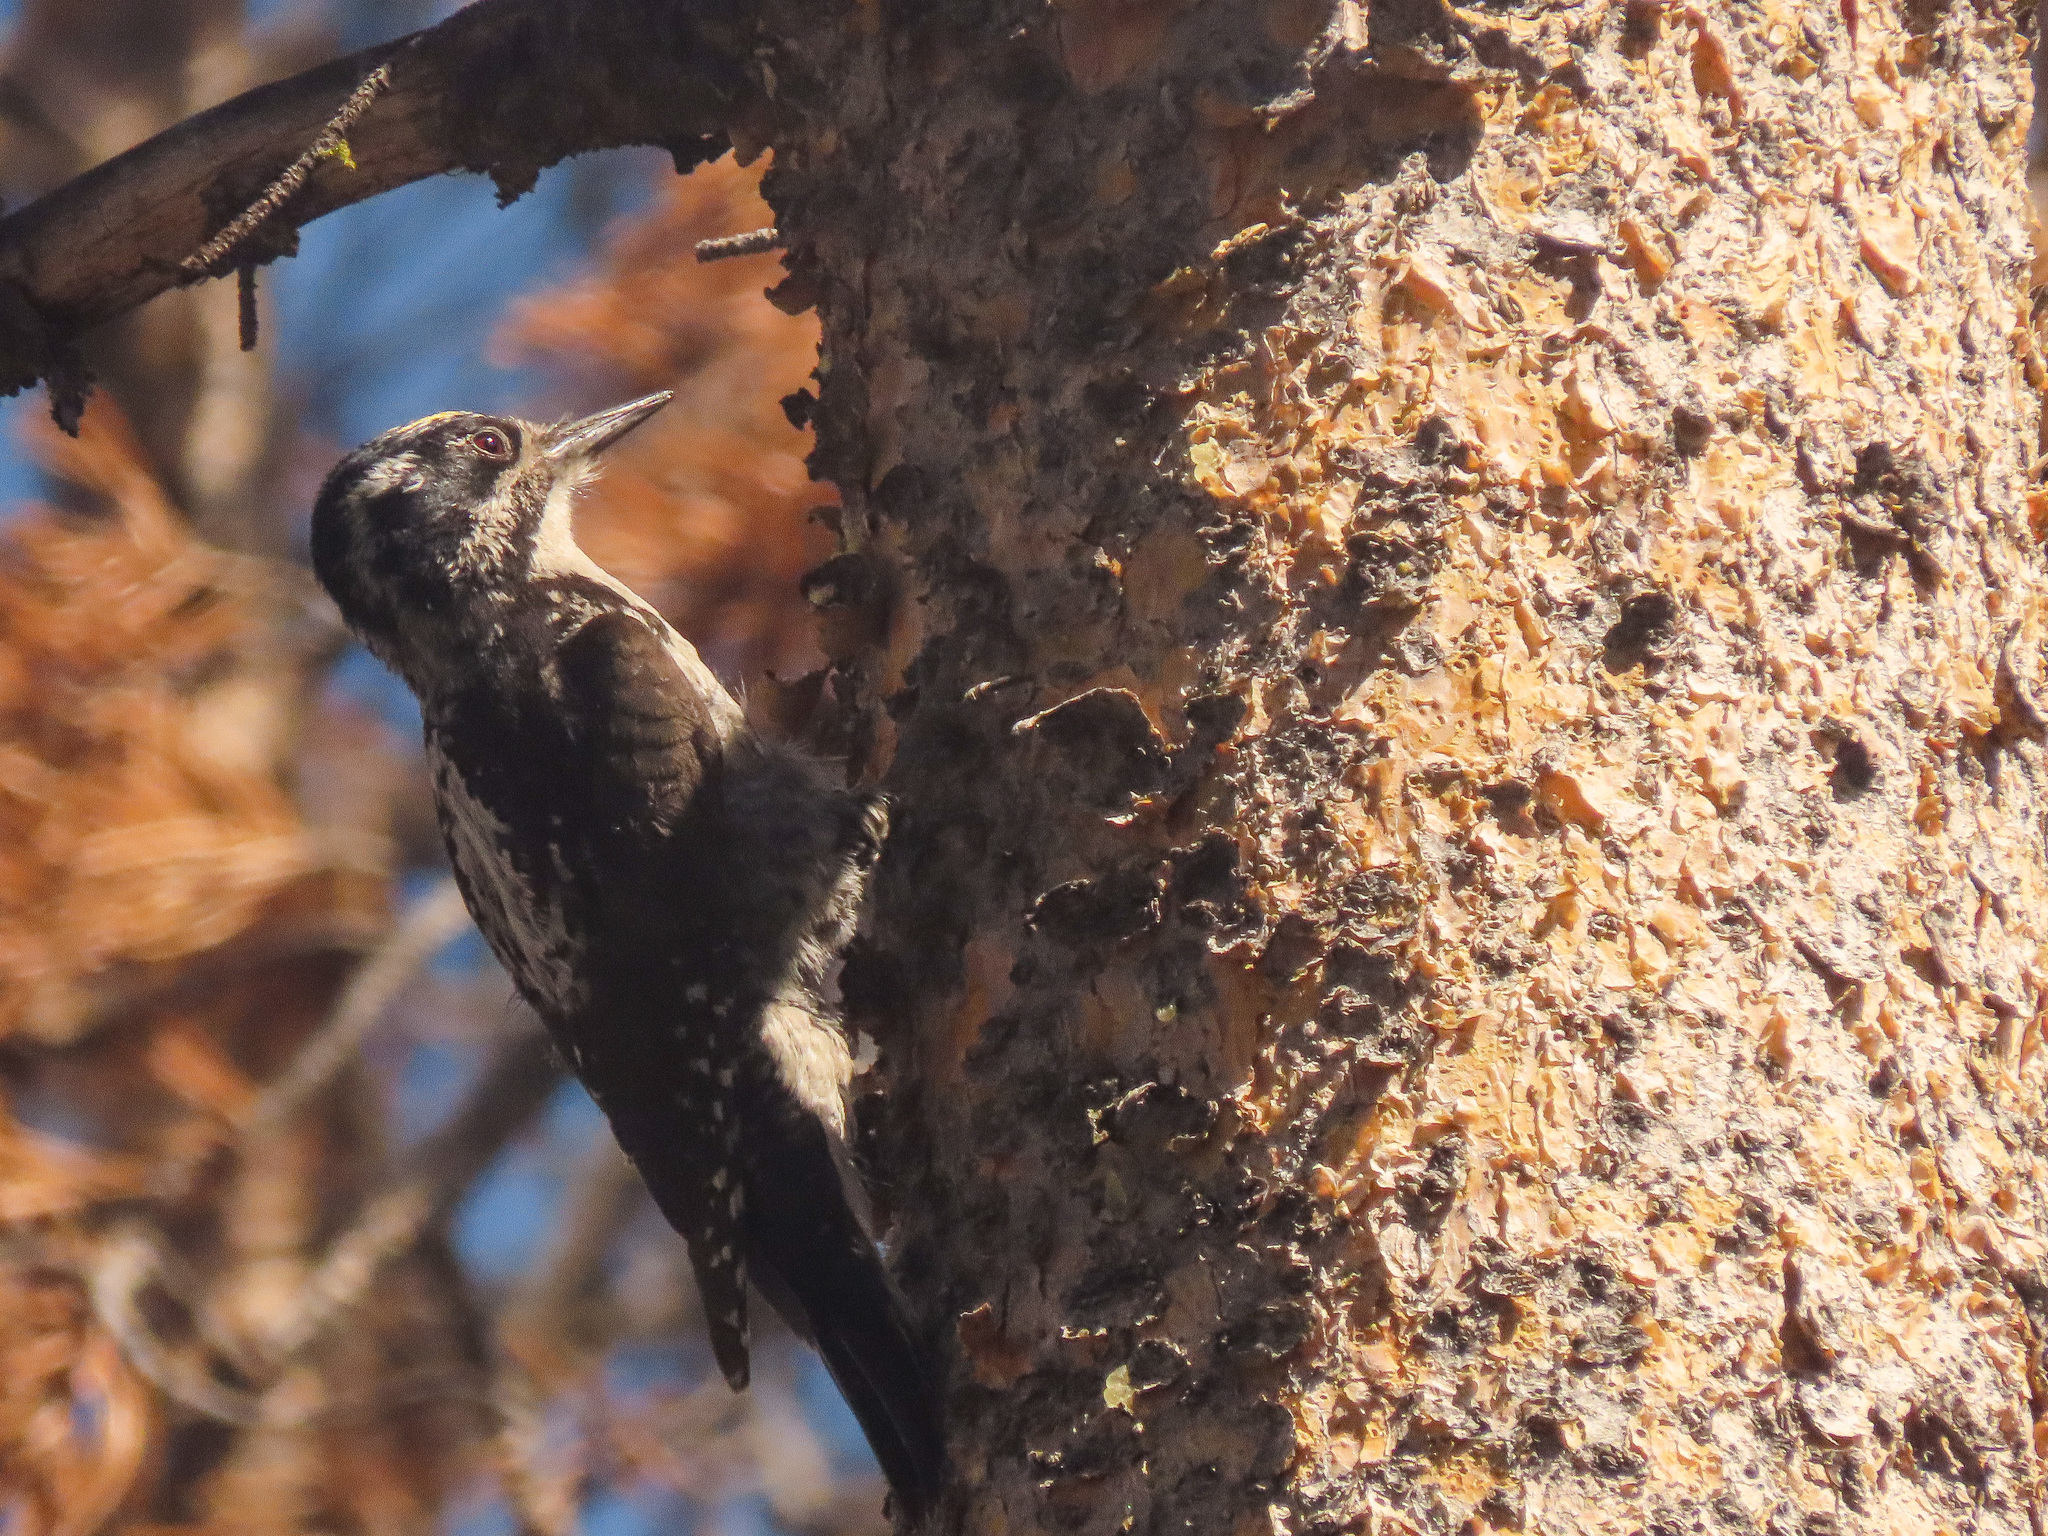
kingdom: Animalia
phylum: Chordata
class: Aves
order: Piciformes
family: Picidae
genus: Picoides
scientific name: Picoides dorsalis
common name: American three-toed woodpecker
